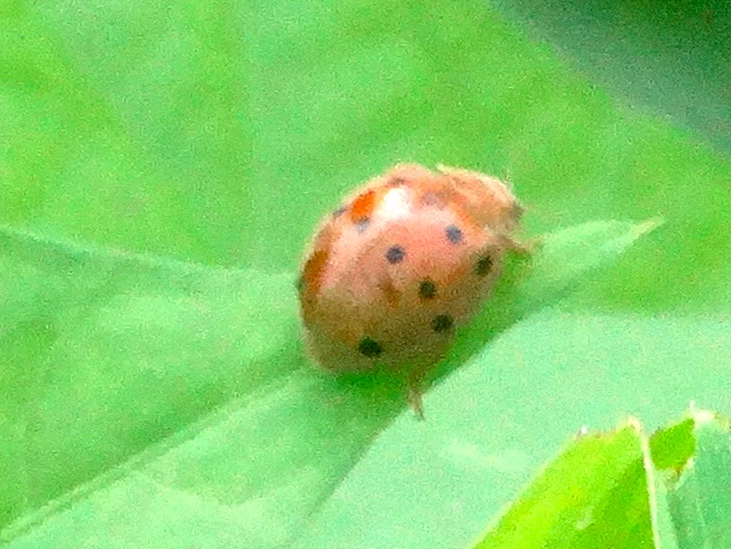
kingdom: Animalia
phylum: Arthropoda
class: Insecta
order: Coleoptera
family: Coccinellidae
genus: Epilachna
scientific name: Epilachna tredecimnotata
